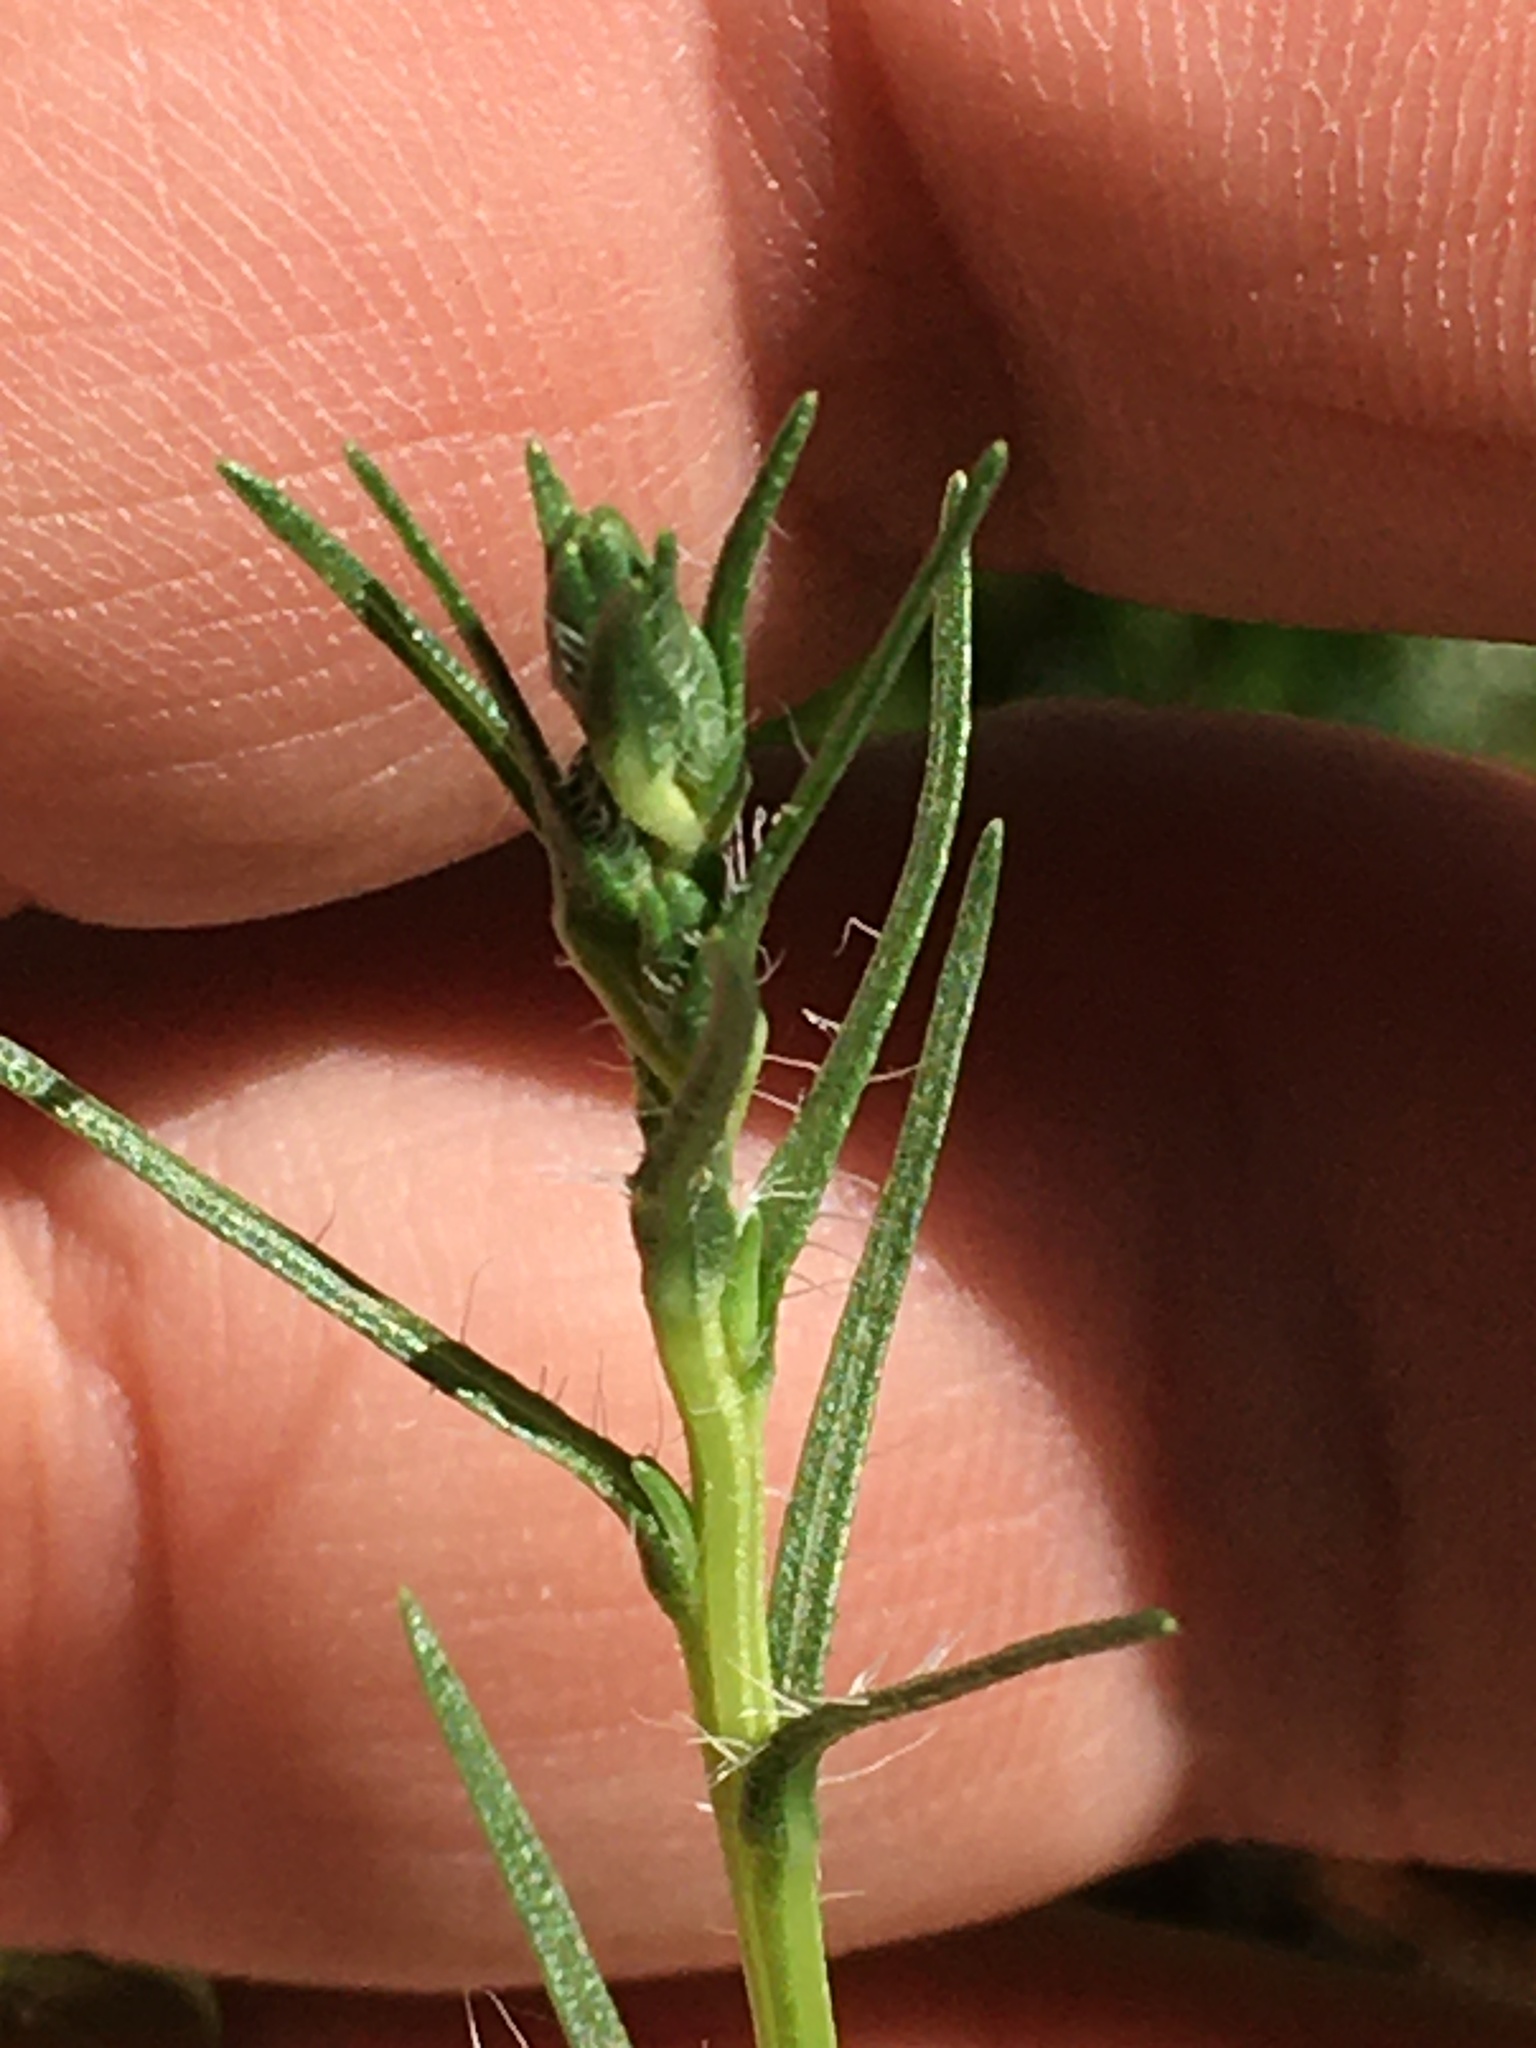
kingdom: Plantae
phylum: Tracheophyta
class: Magnoliopsida
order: Asterales
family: Asteraceae
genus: Liatris
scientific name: Liatris pilosa
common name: Grass-leaf gayfeather
